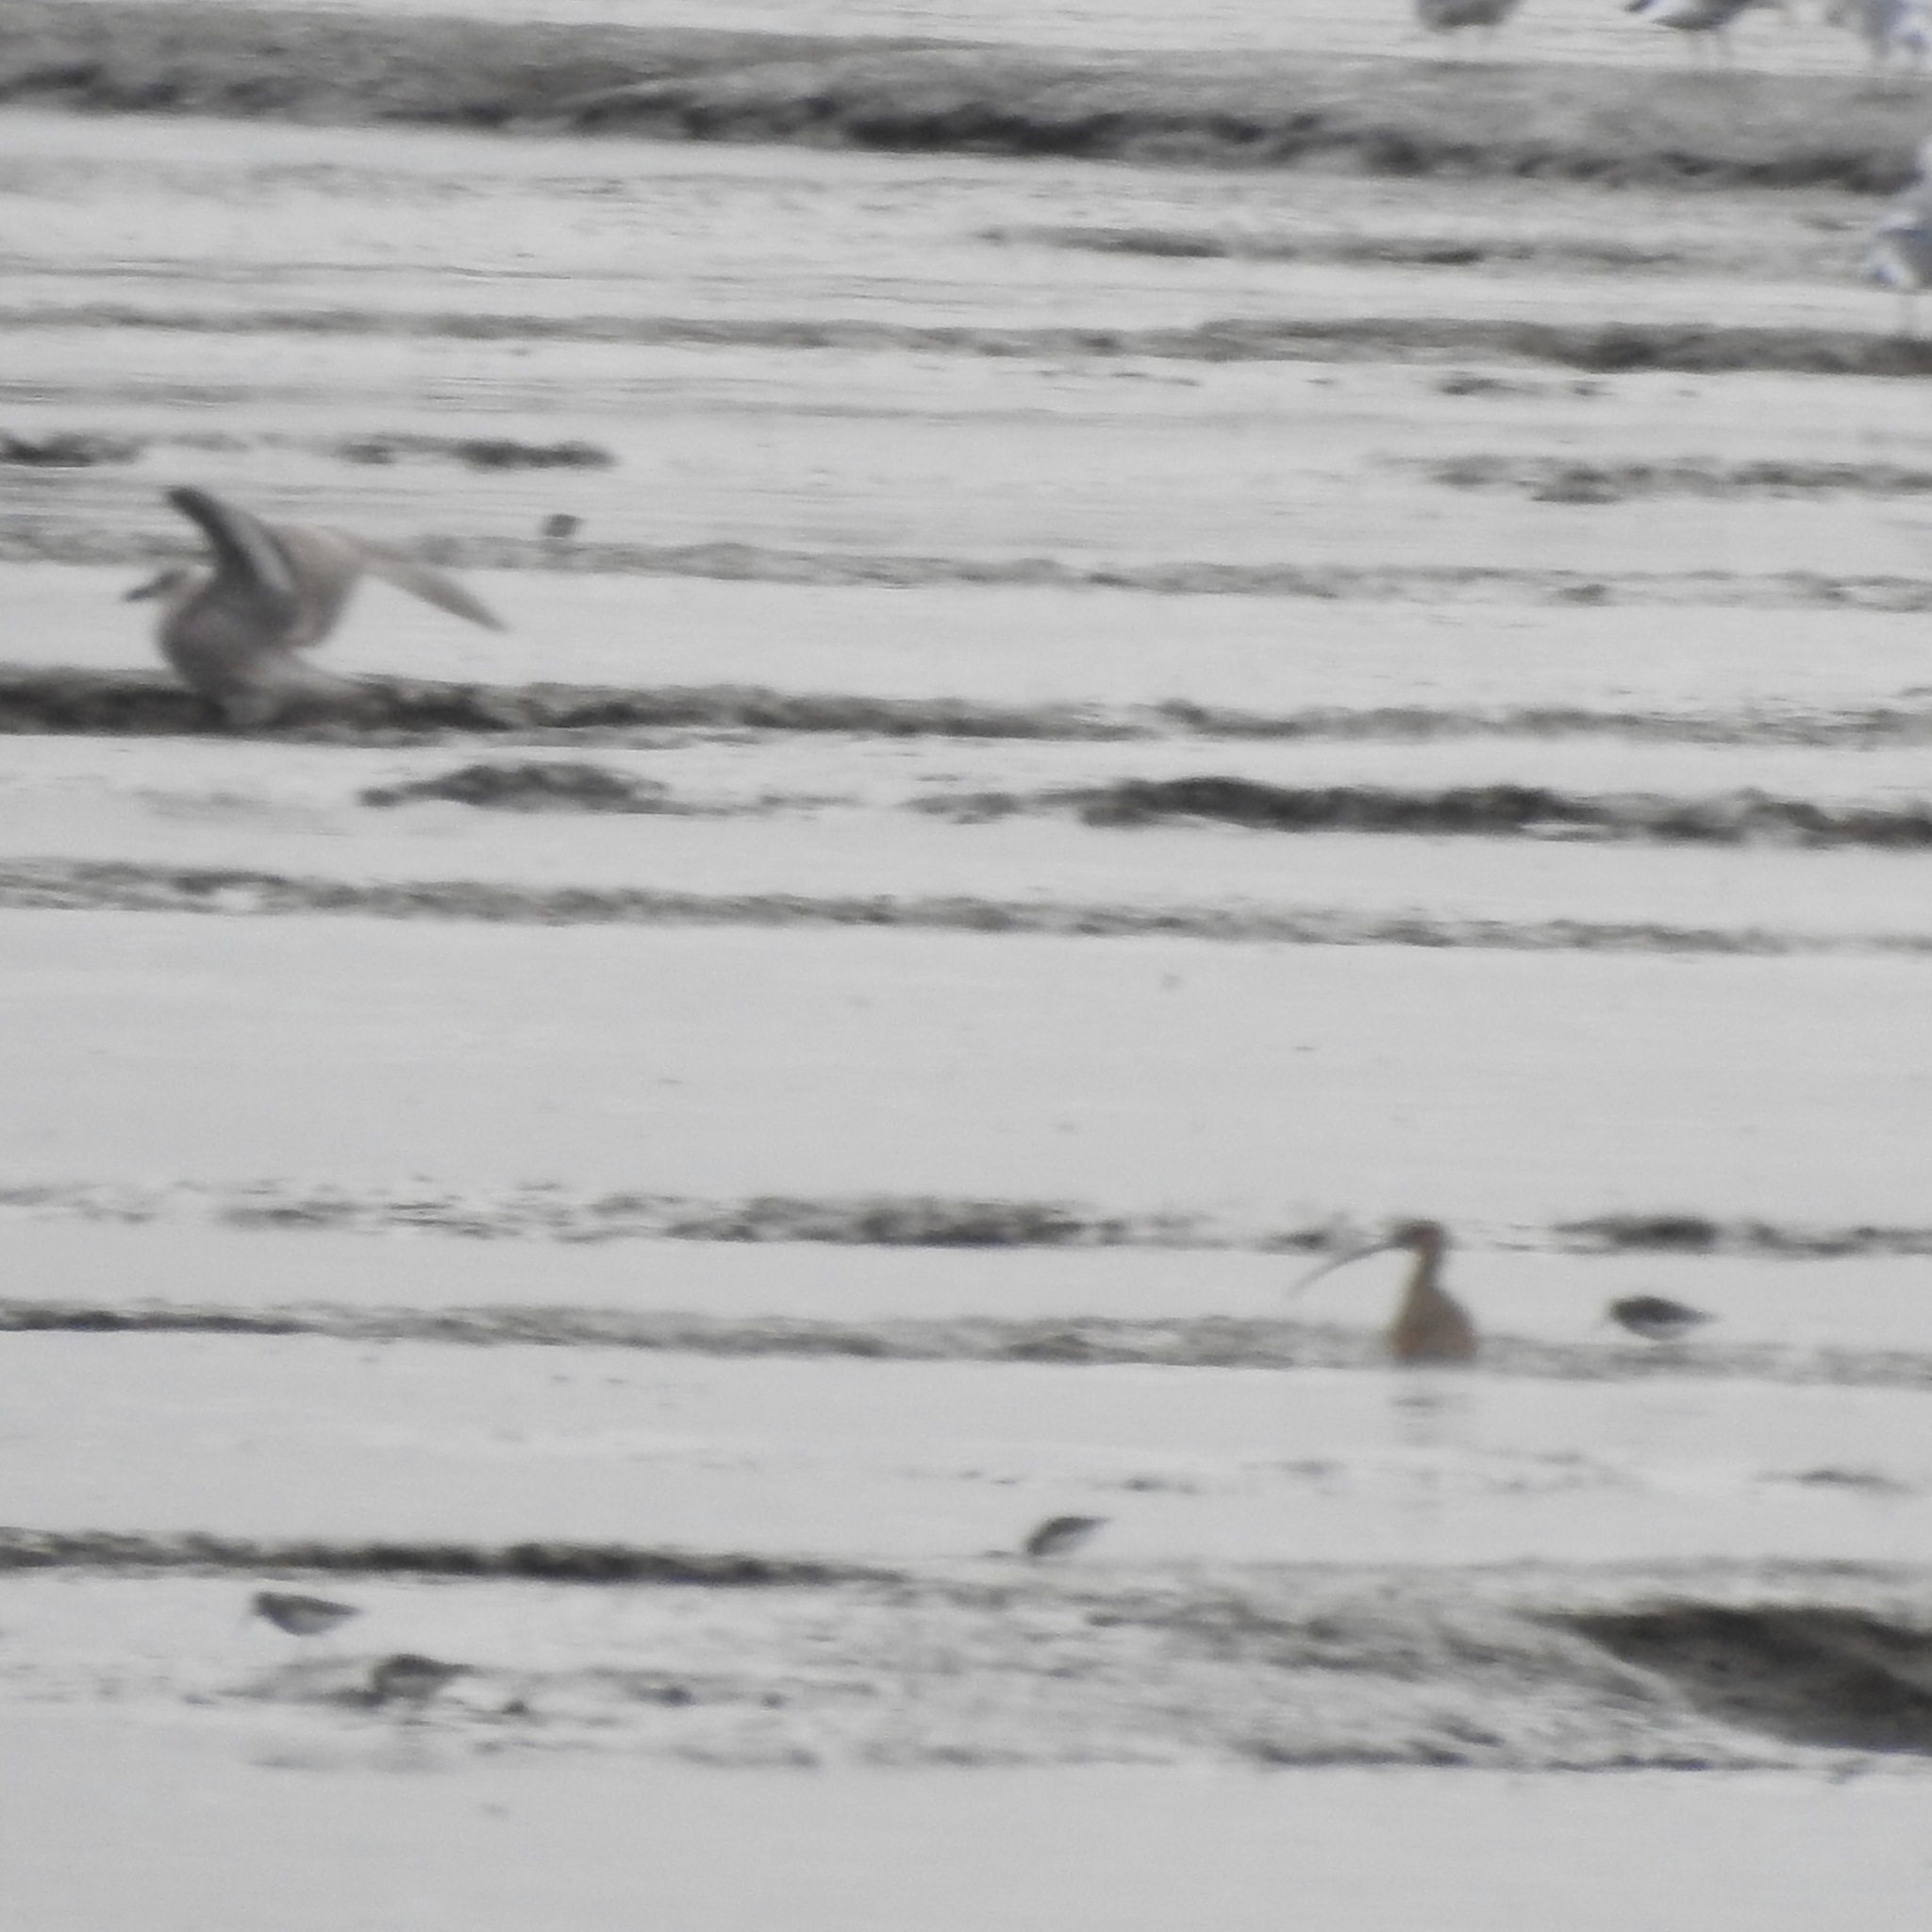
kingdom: Animalia
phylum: Chordata
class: Aves
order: Charadriiformes
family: Scolopacidae
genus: Numenius
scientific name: Numenius americanus
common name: Long-billed curlew
